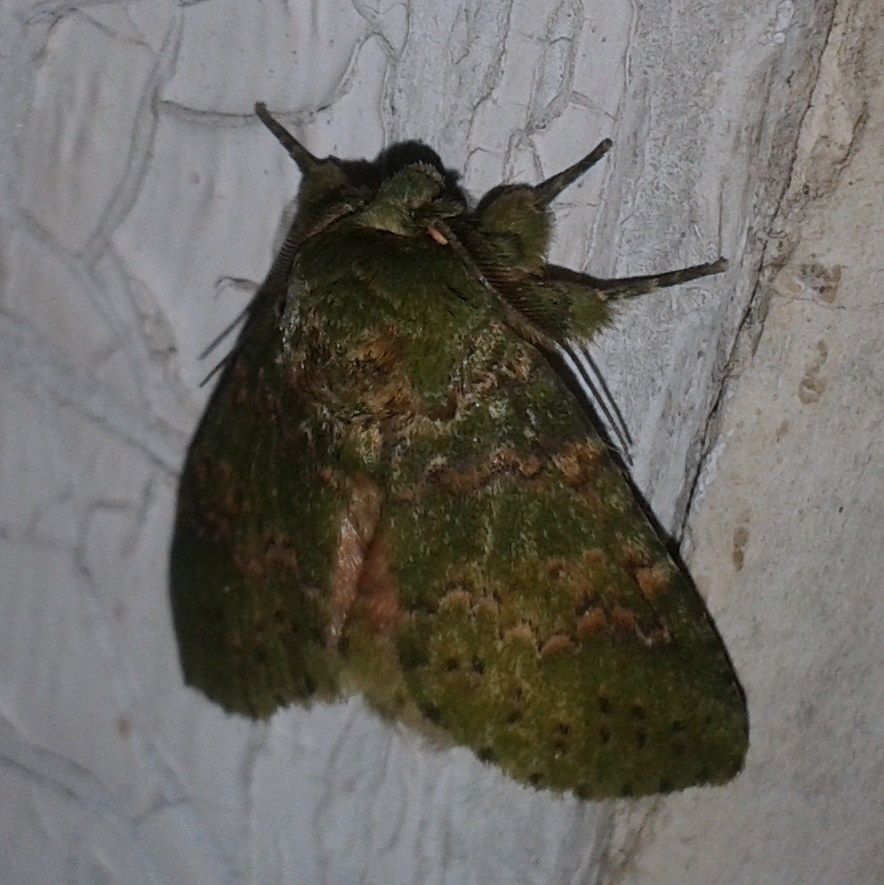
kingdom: Animalia
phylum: Arthropoda
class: Insecta
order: Lepidoptera
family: Notodontidae
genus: Disphragis
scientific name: Disphragis bochica
